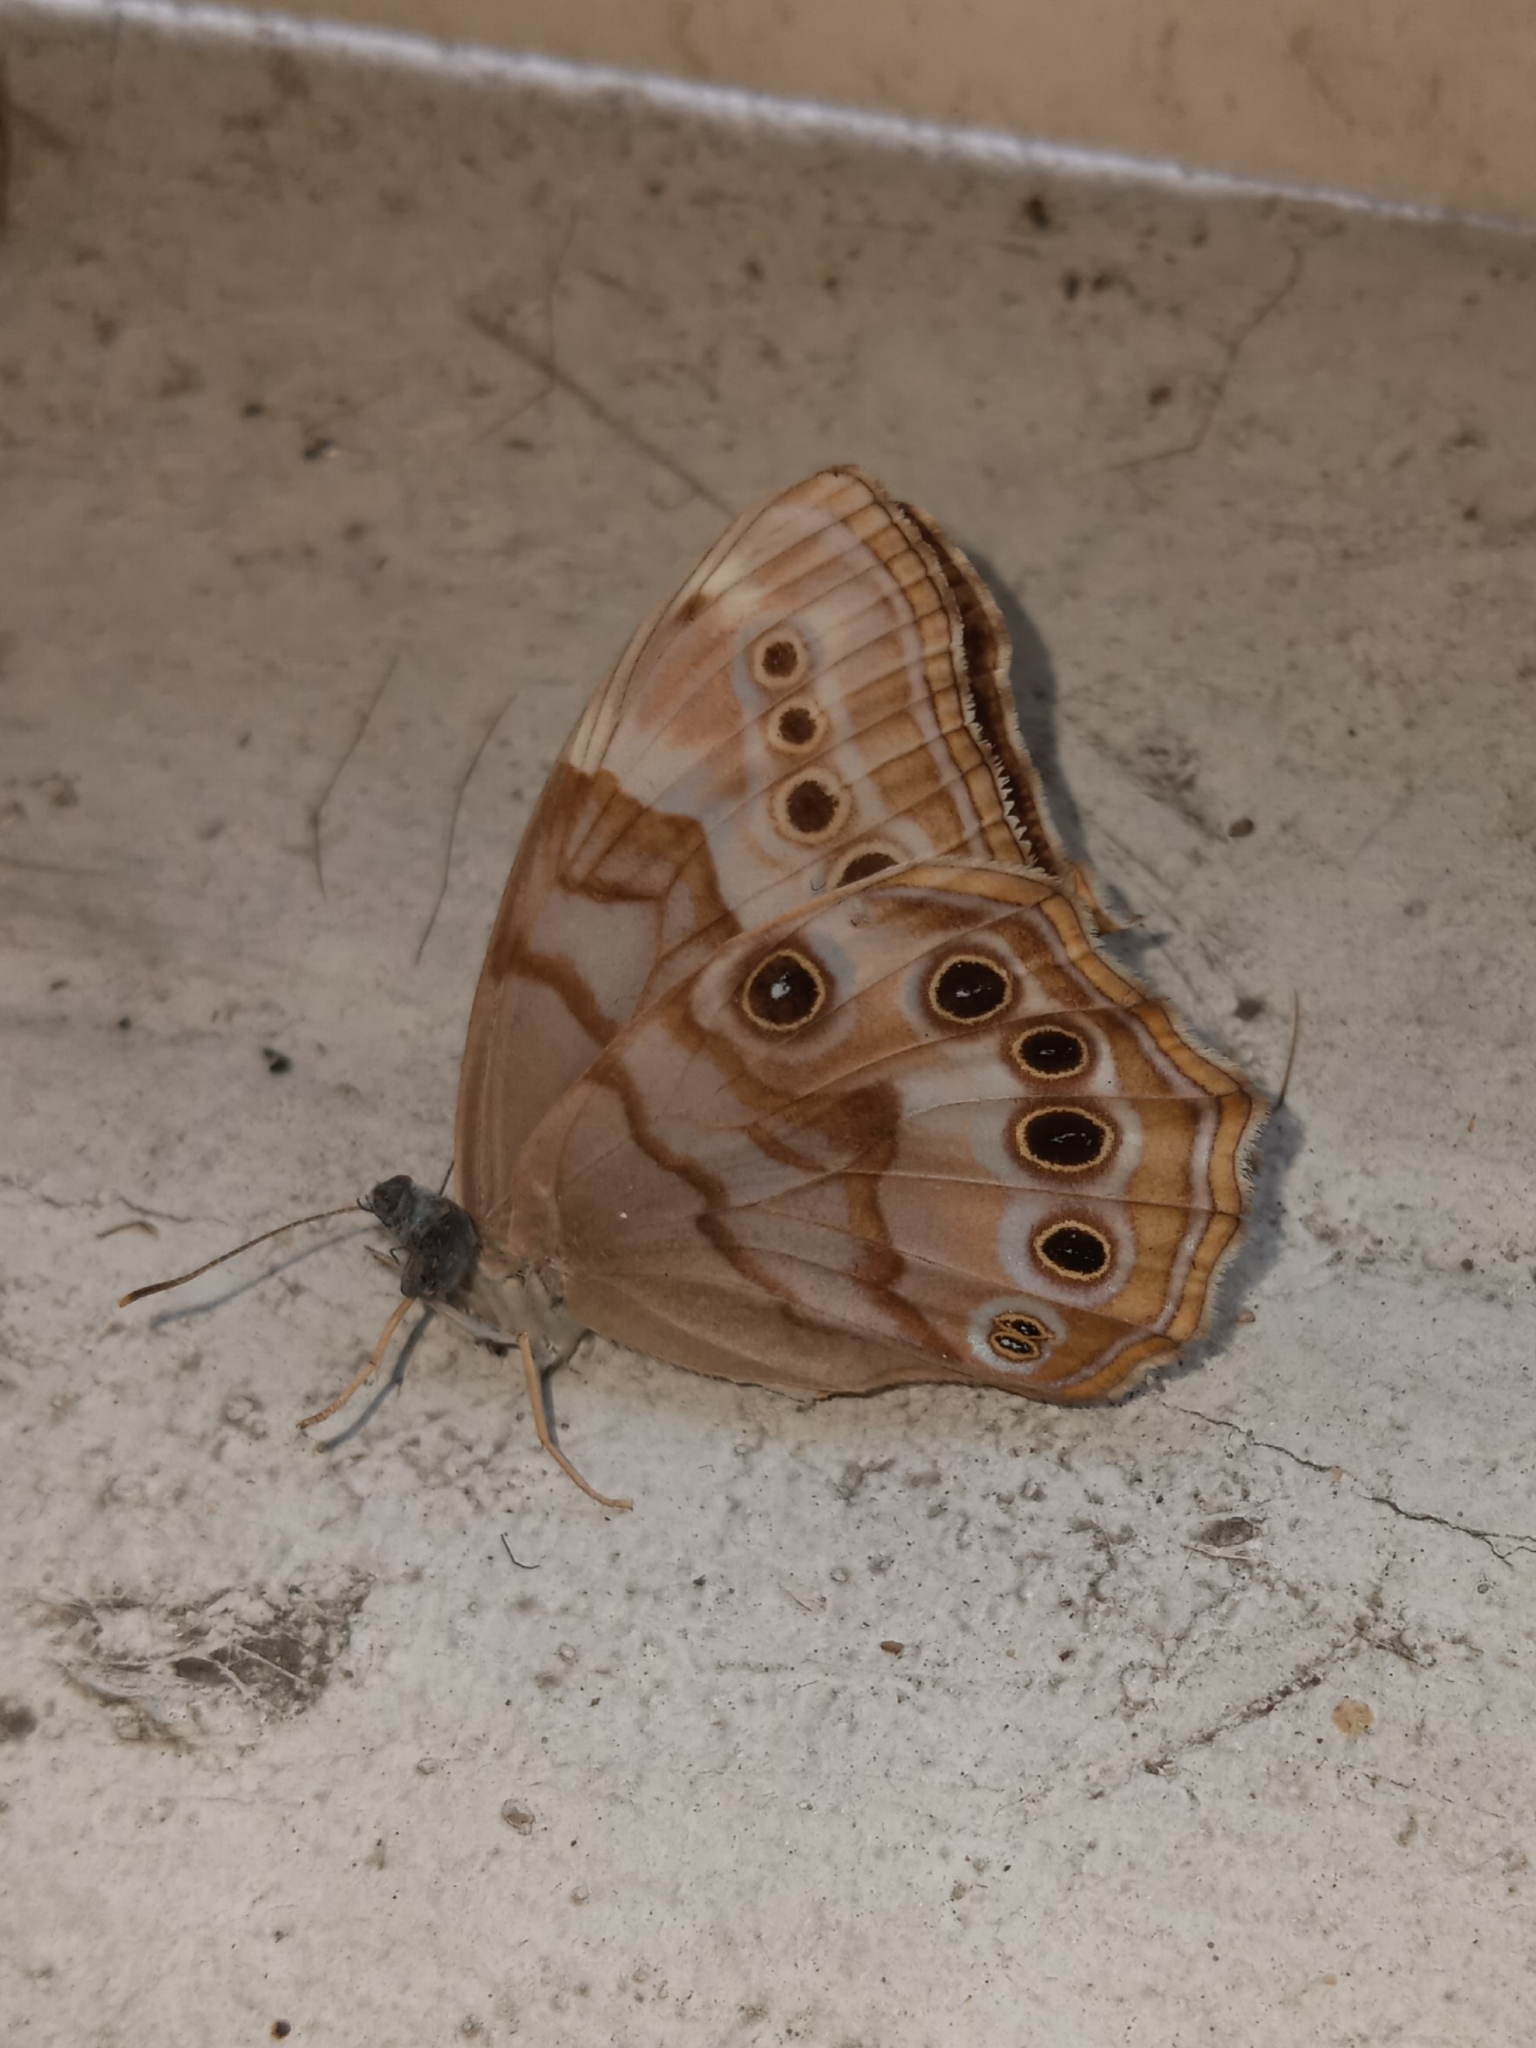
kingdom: Animalia
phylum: Arthropoda
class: Insecta
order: Lepidoptera
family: Nymphalidae
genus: Enodia
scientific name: Enodia portlandia
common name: Southern pearly-eye
